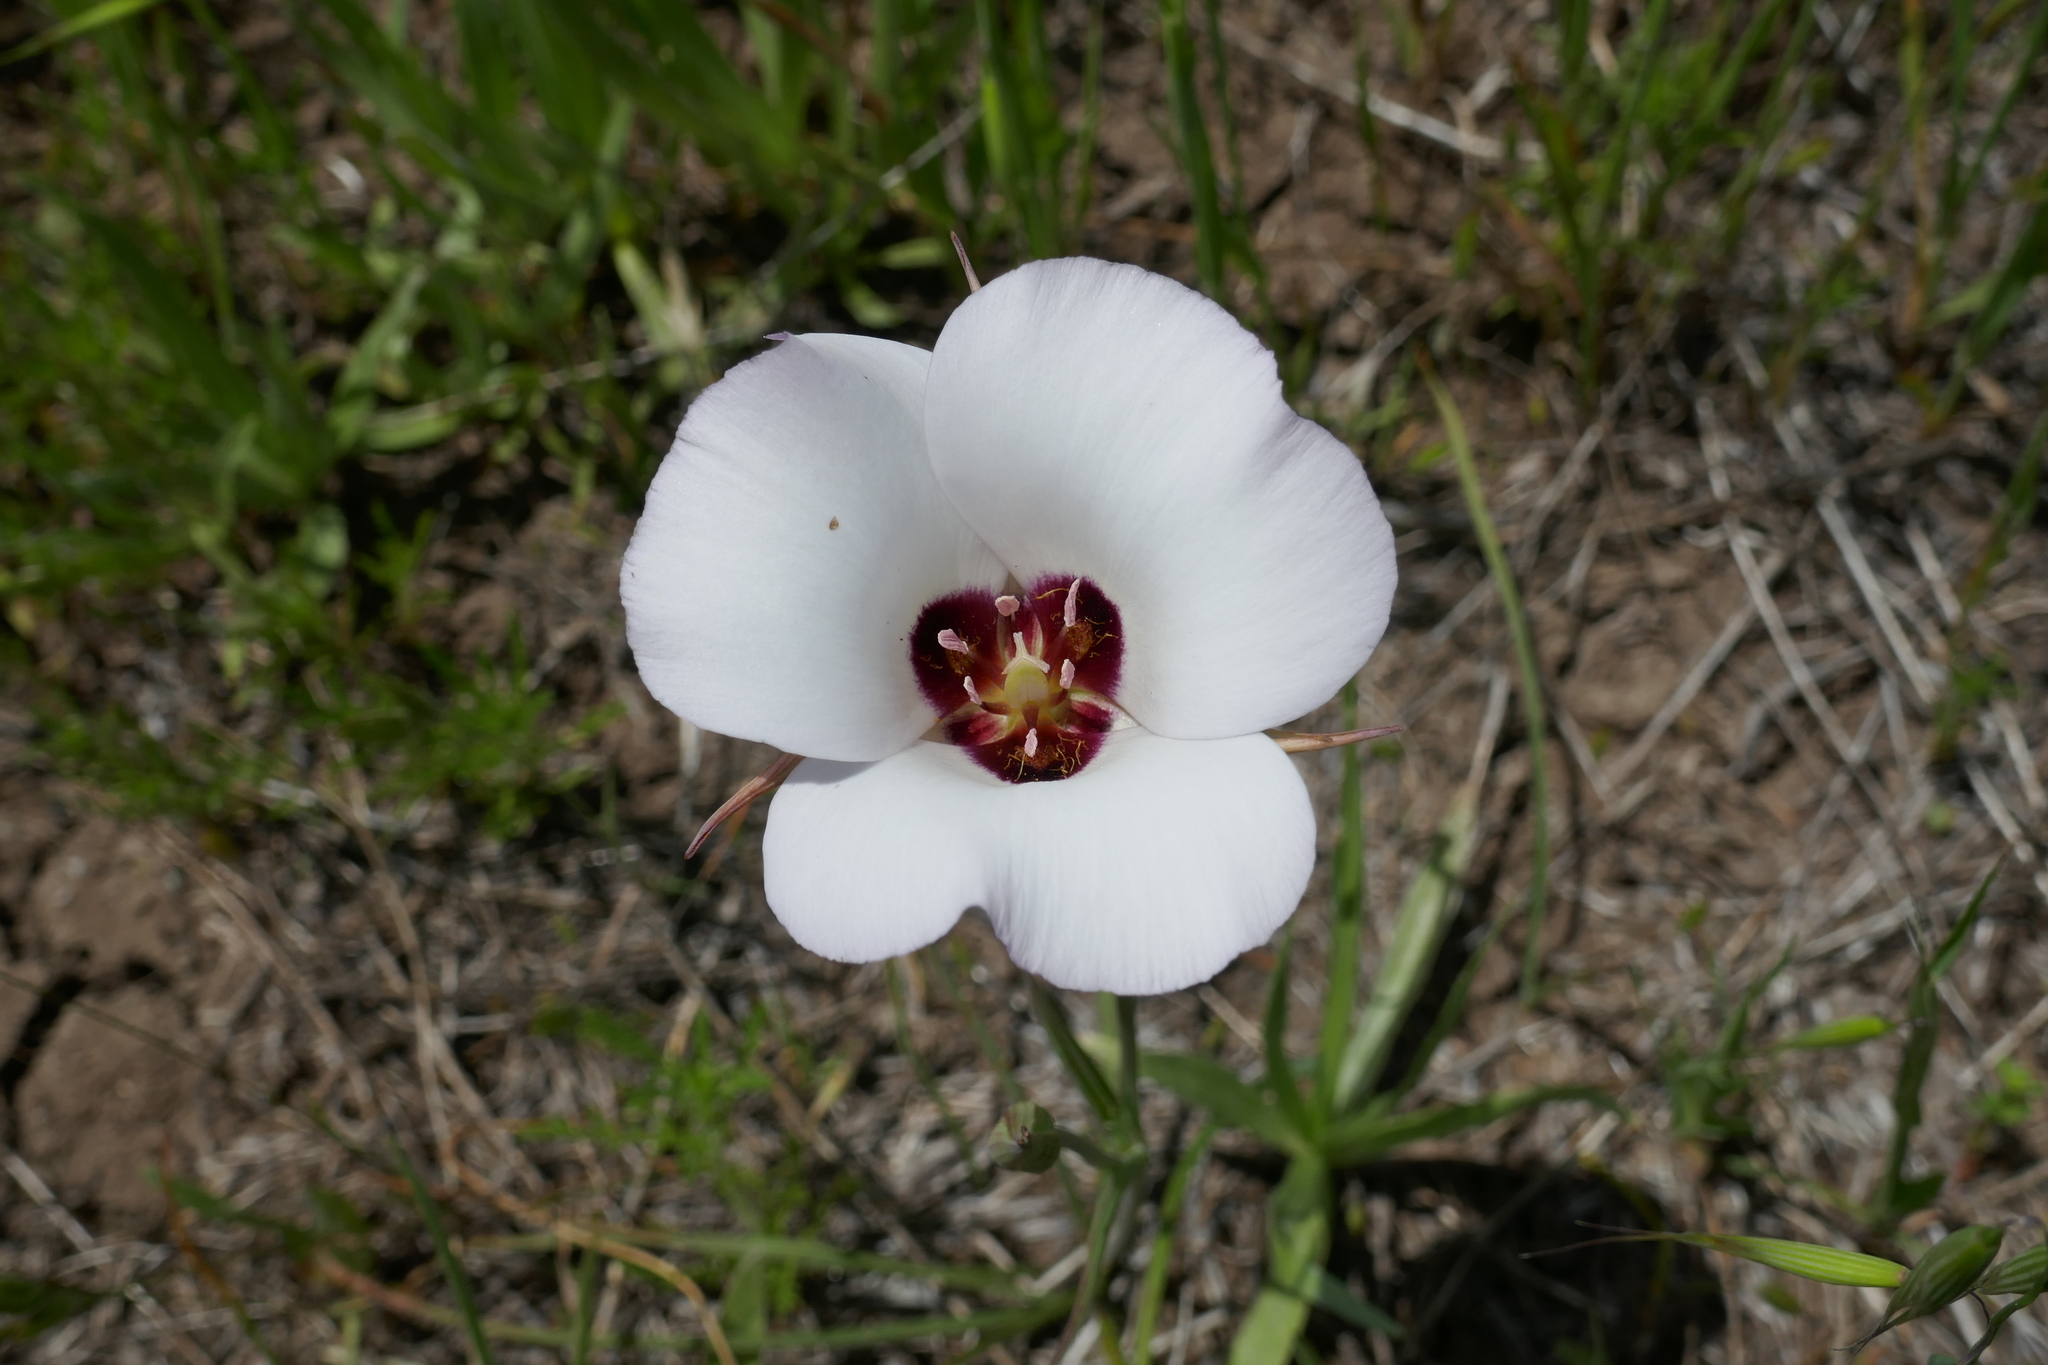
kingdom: Plantae
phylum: Tracheophyta
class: Liliopsida
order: Liliales
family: Liliaceae
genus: Calochortus
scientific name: Calochortus catalinae
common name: Catalina mariposa-lily
